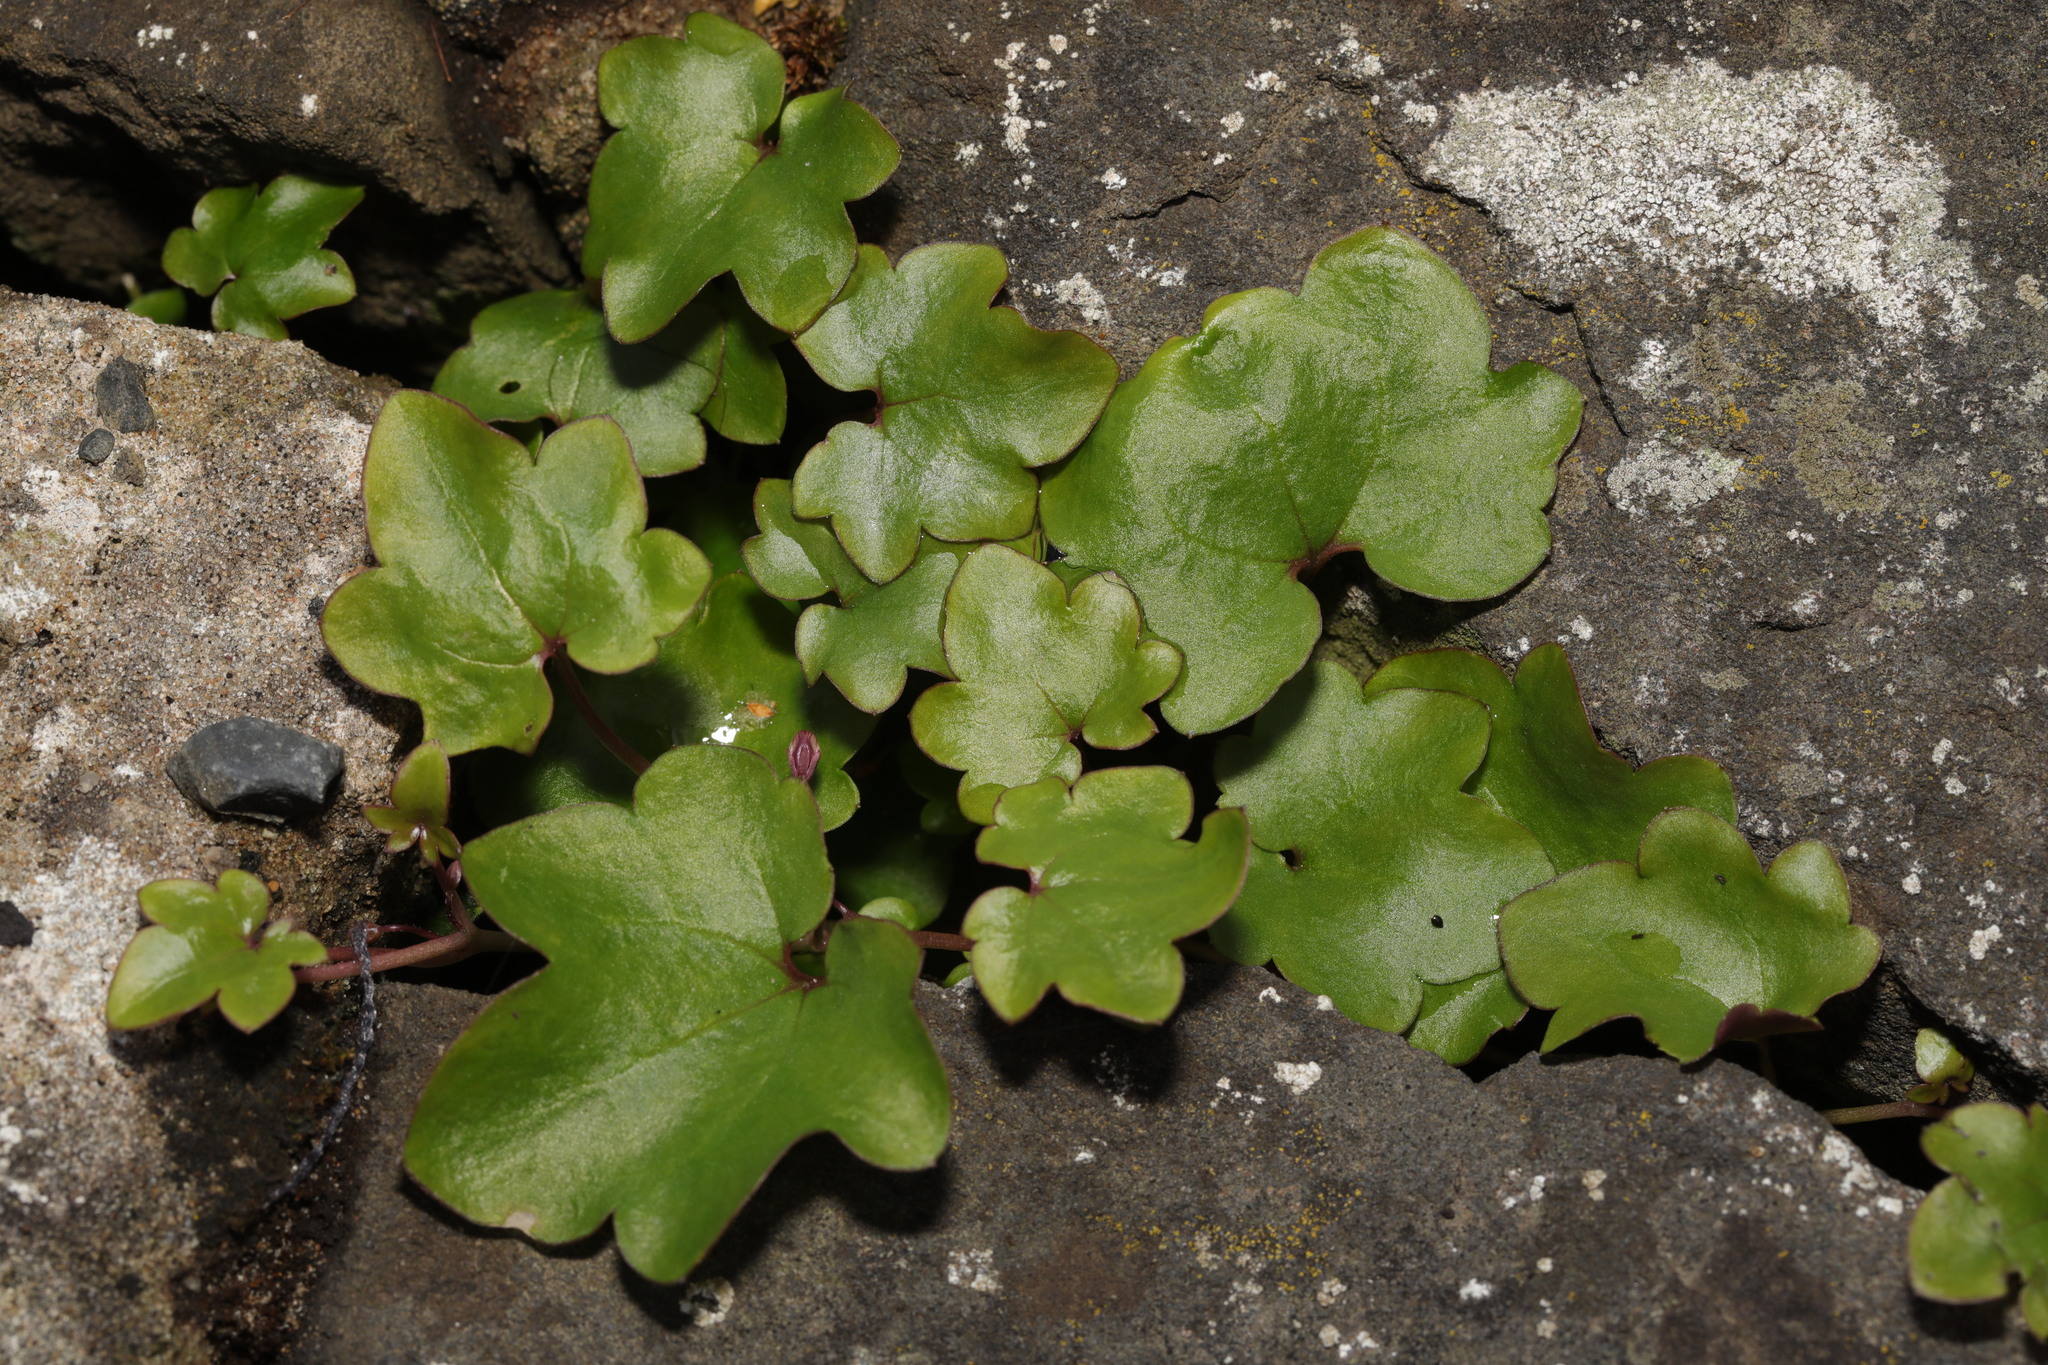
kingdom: Plantae
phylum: Tracheophyta
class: Magnoliopsida
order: Lamiales
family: Plantaginaceae
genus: Cymbalaria
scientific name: Cymbalaria muralis
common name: Ivy-leaved toadflax
